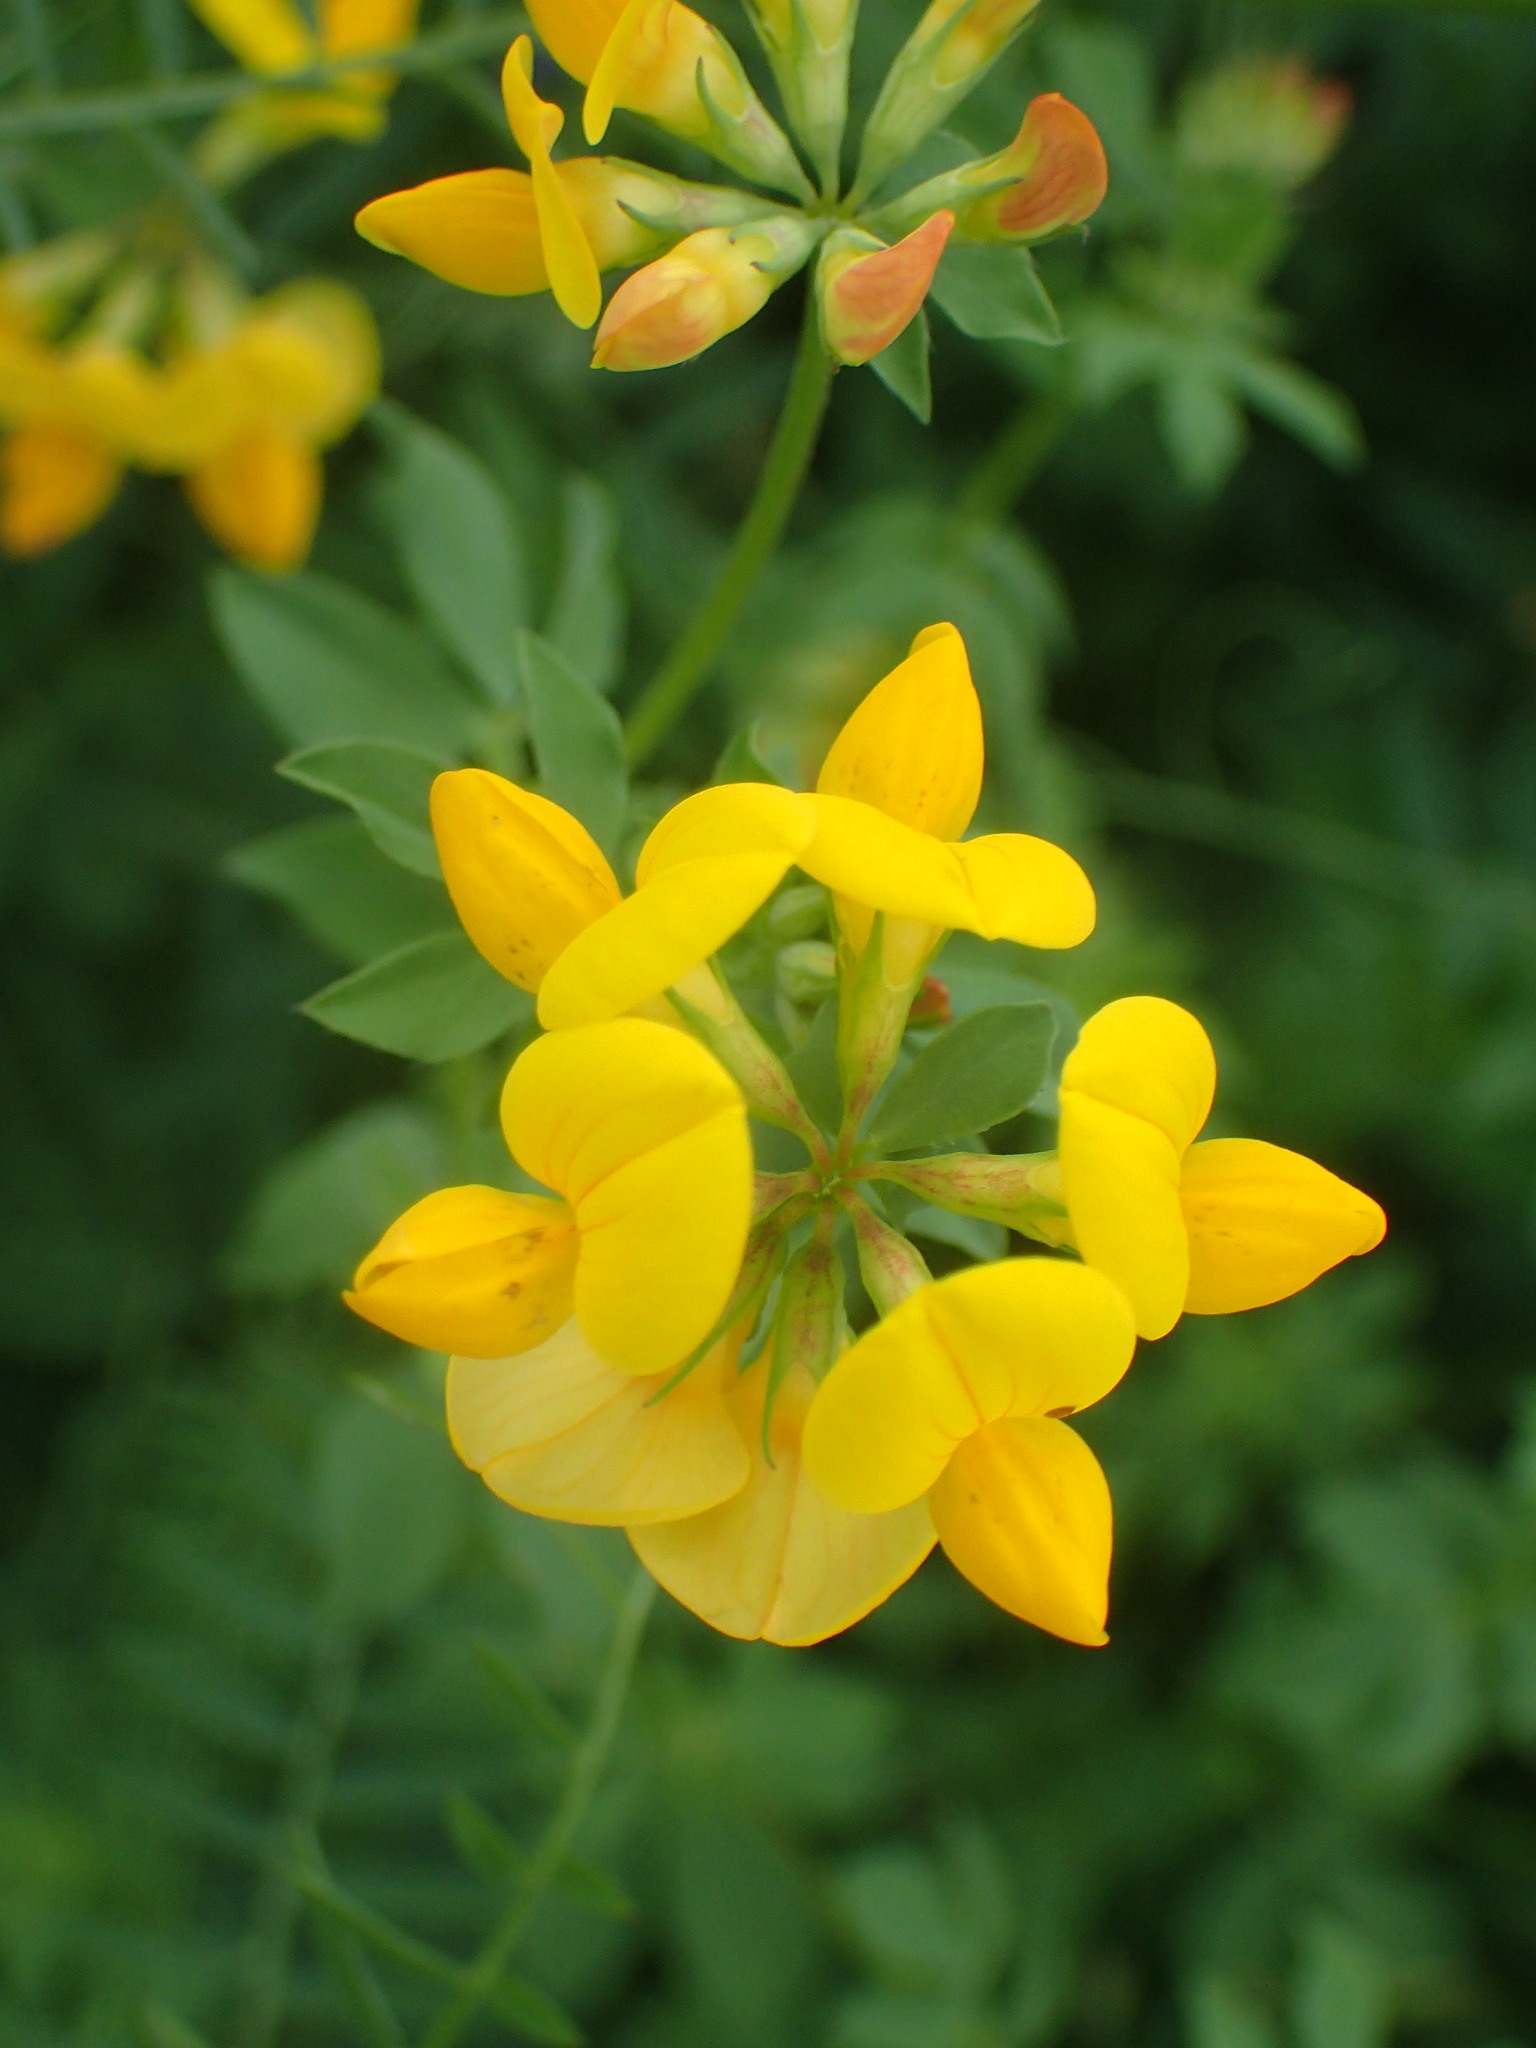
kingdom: Plantae
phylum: Tracheophyta
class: Magnoliopsida
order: Fabales
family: Fabaceae
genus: Lotus
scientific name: Lotus corniculatus
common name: Common bird's-foot-trefoil
